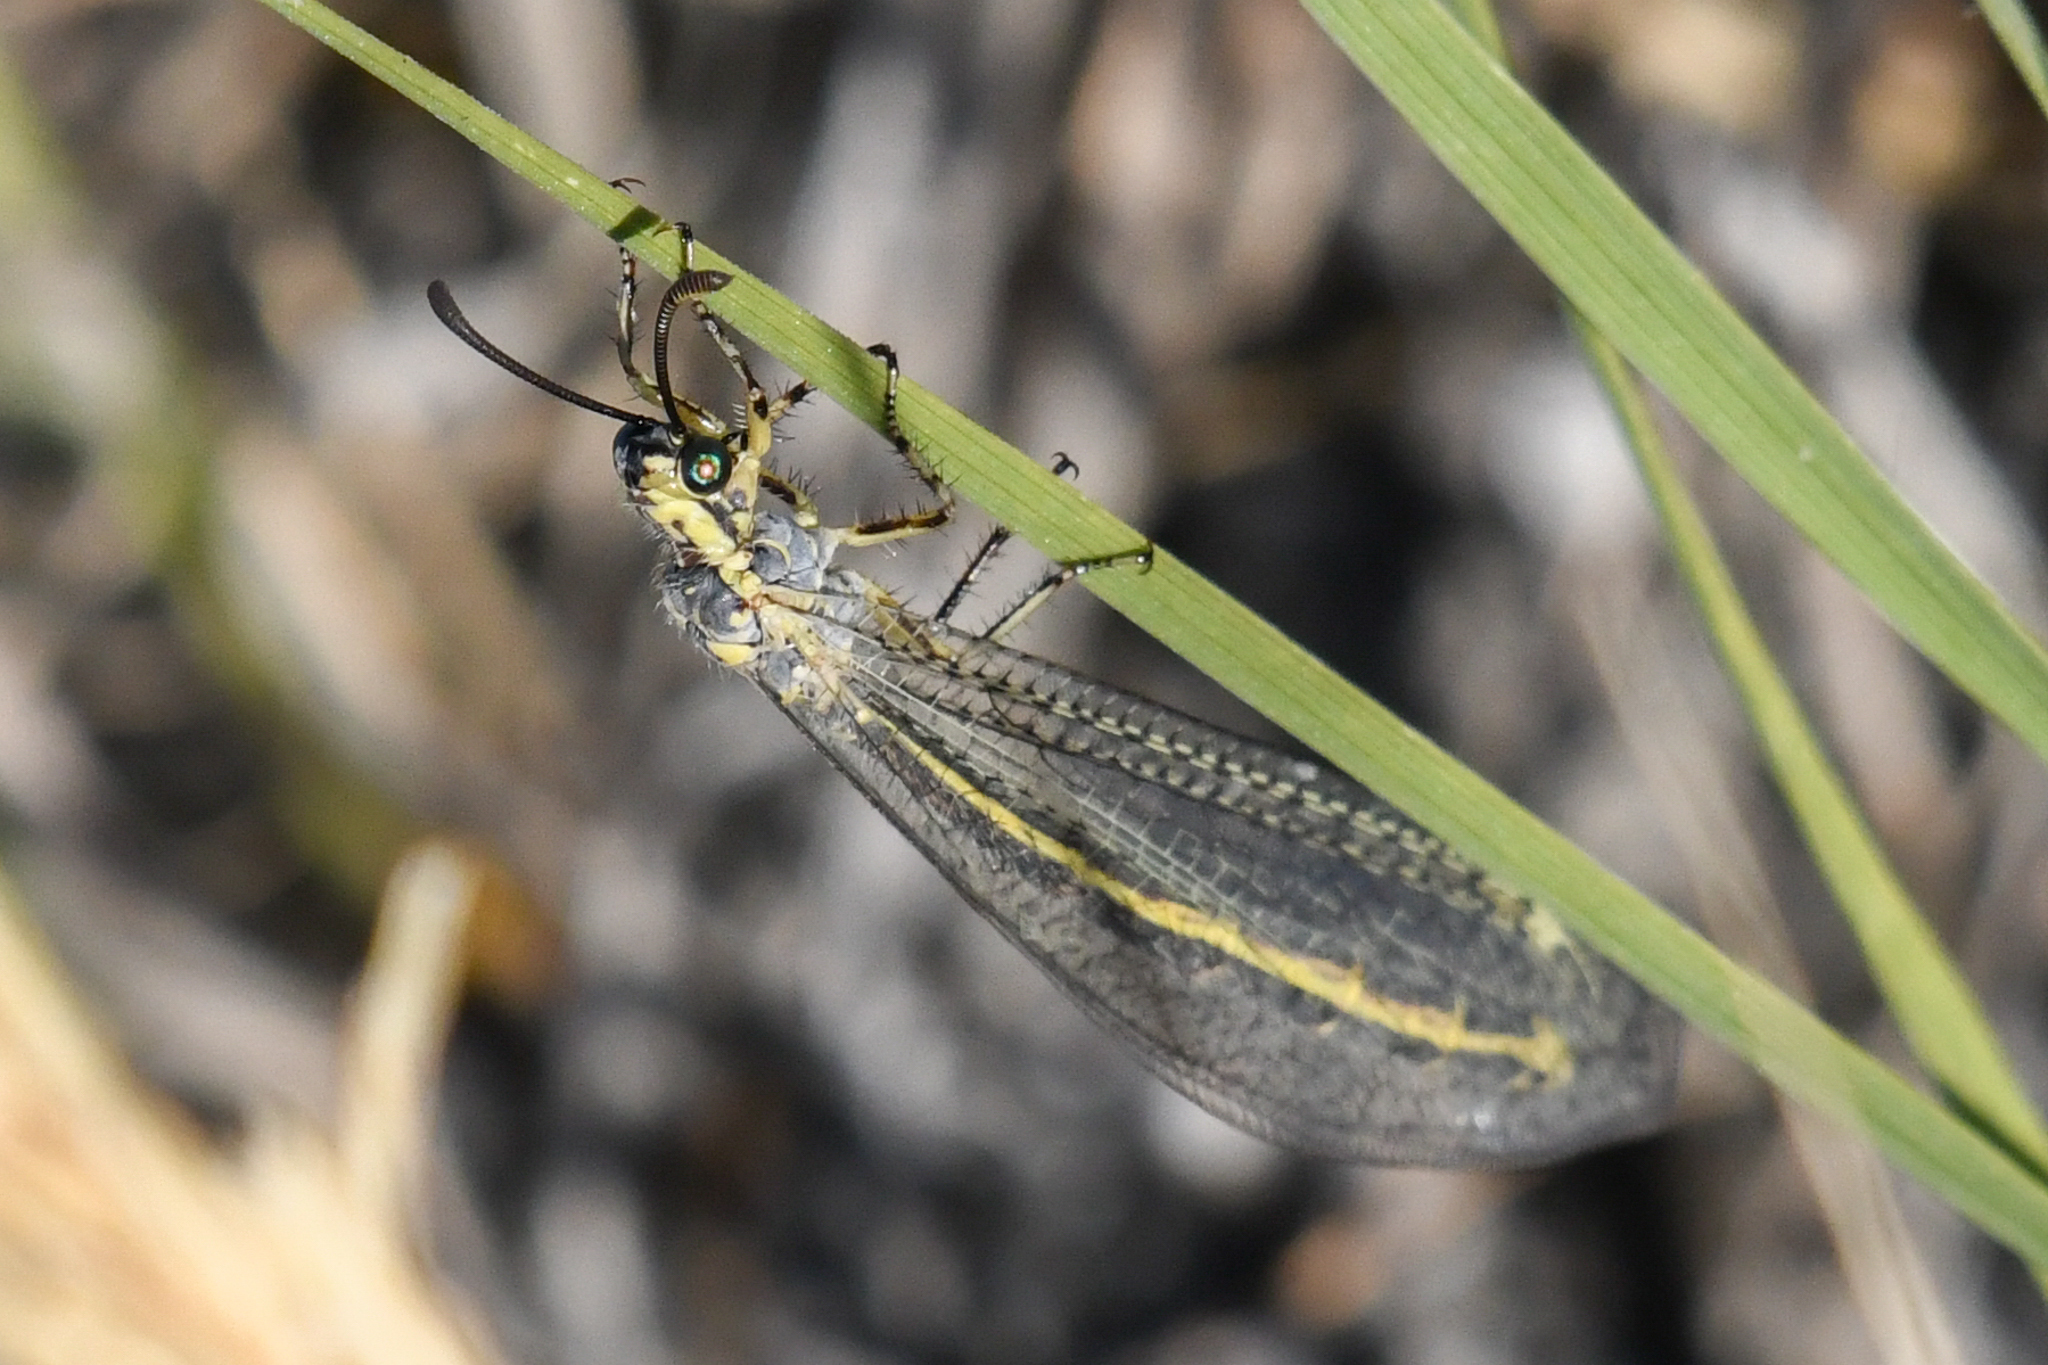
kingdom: Animalia
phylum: Arthropoda
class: Insecta
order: Neuroptera
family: Myrmeleontidae
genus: Scotoleon
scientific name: Scotoleon nigrilabris
